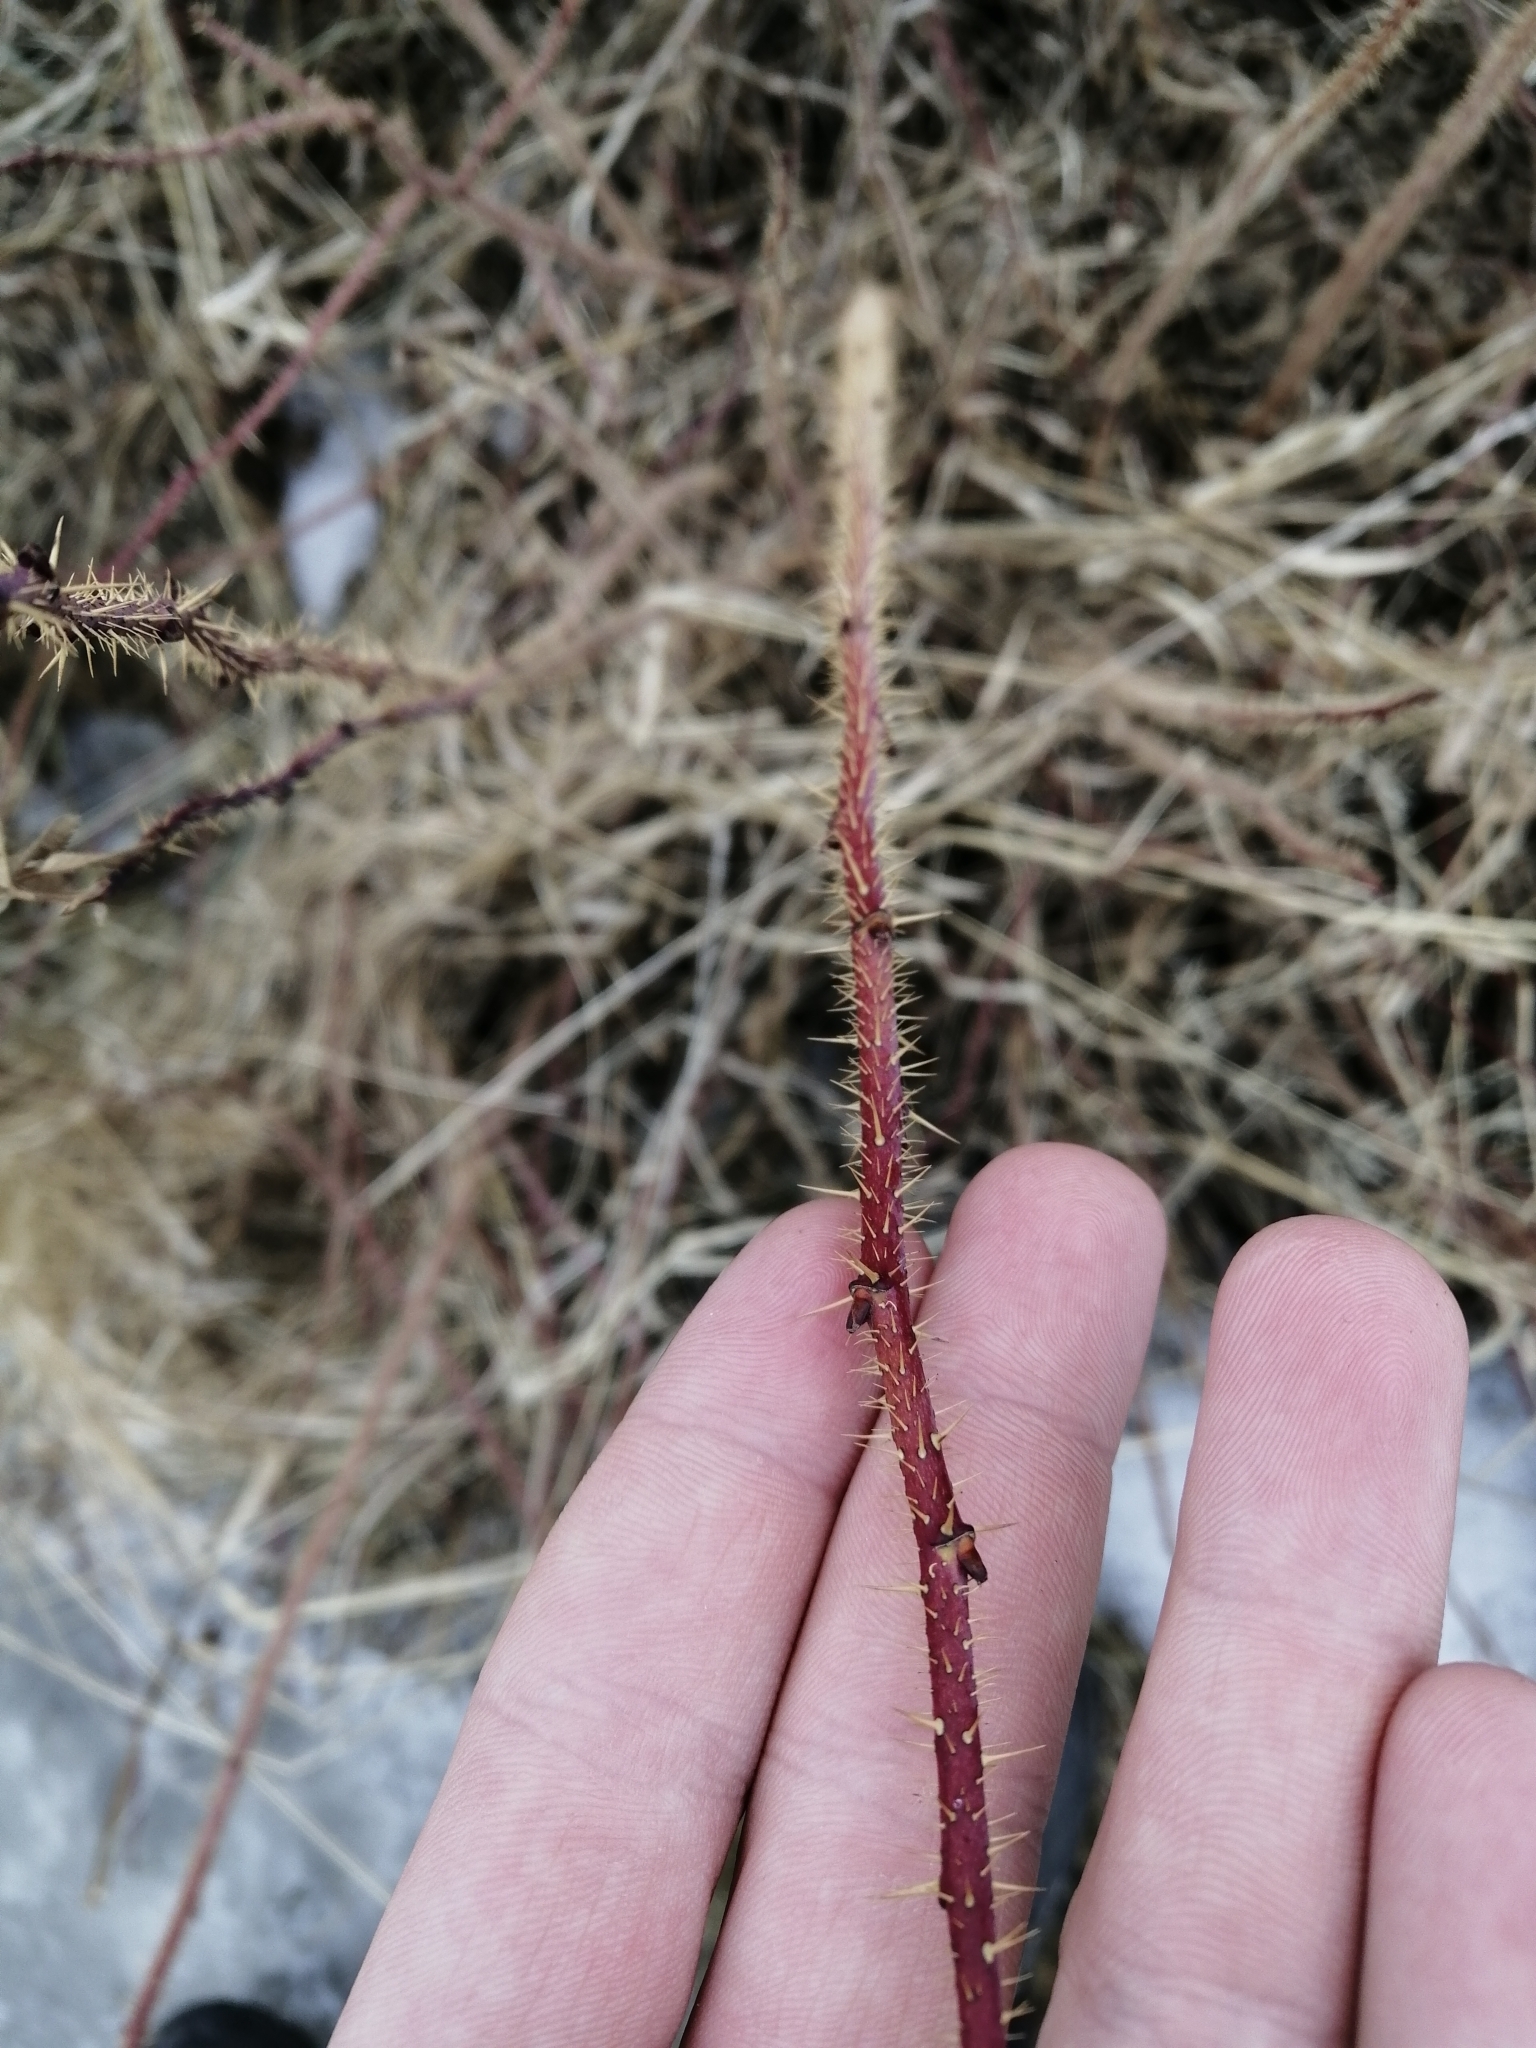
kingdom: Plantae
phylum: Tracheophyta
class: Magnoliopsida
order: Rosales
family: Rosaceae
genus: Rosa
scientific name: Rosa acicularis
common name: Prickly rose
